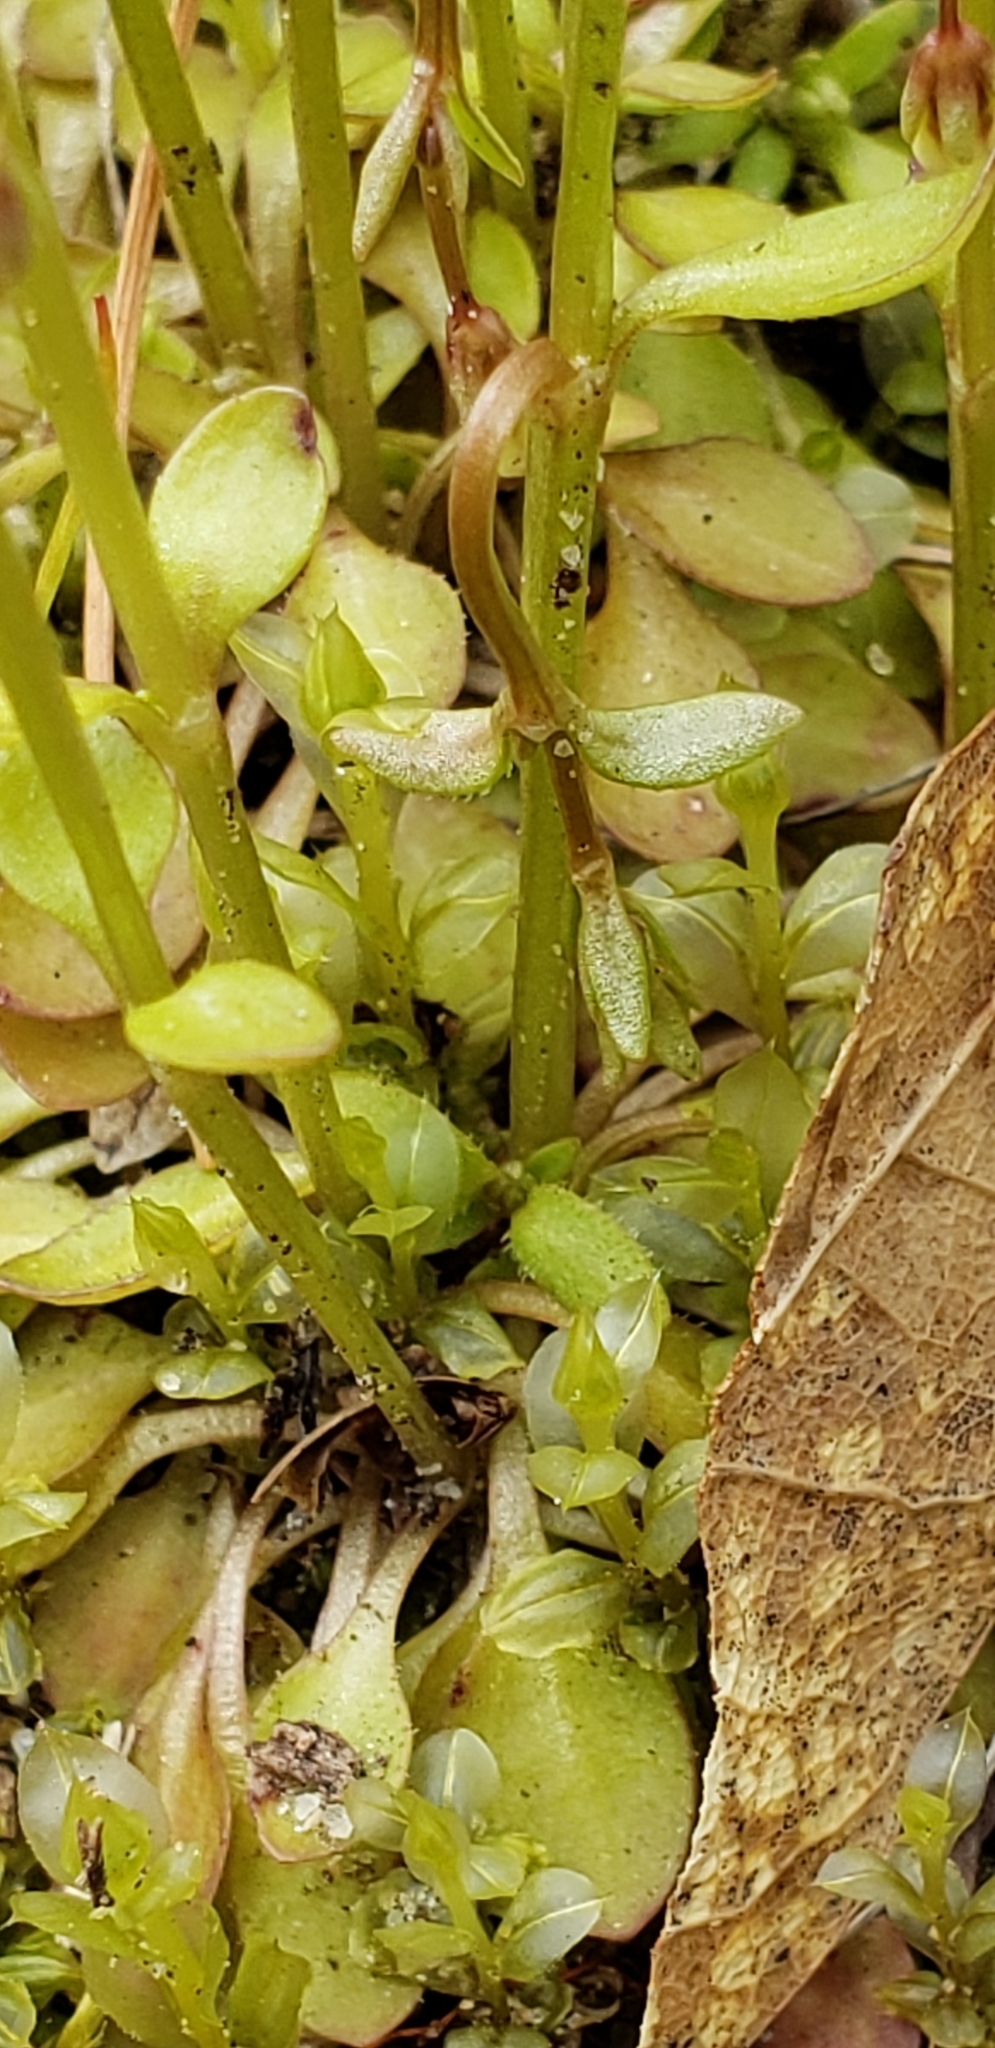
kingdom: Plantae
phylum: Tracheophyta
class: Magnoliopsida
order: Gentianales
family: Rubiaceae
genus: Houstonia
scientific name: Houstonia caerulea
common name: Bluets
